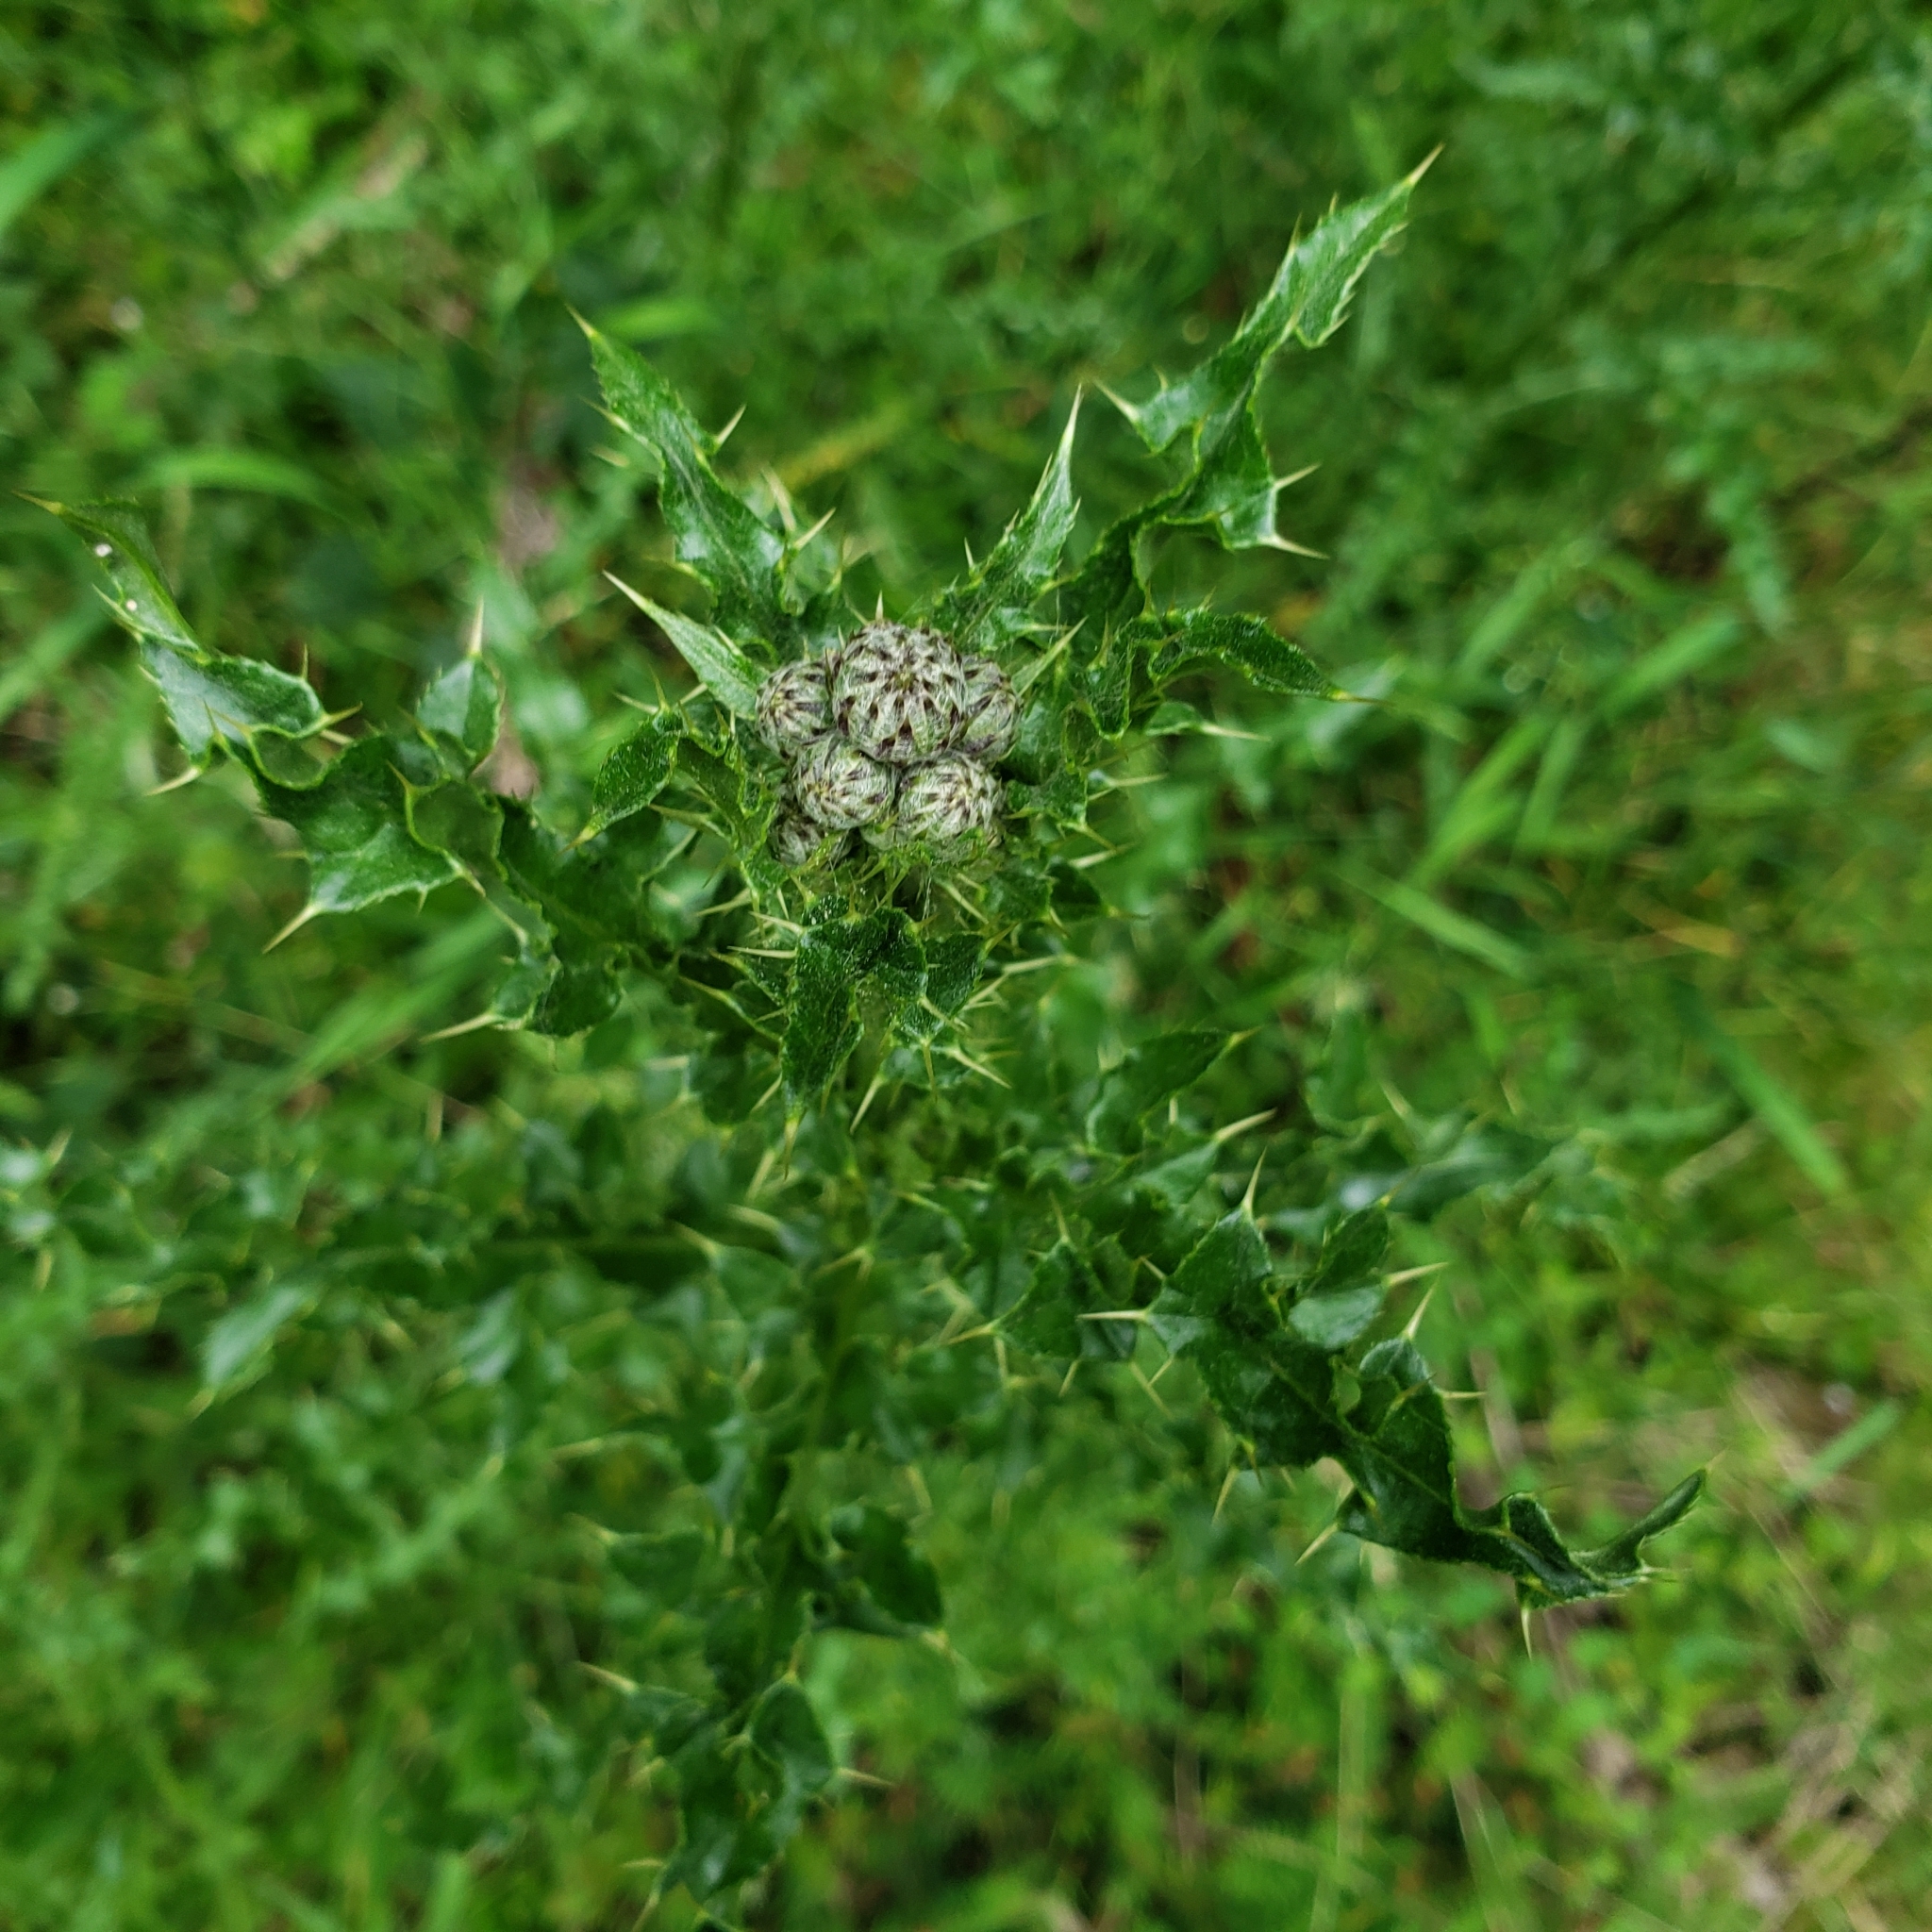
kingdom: Plantae
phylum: Tracheophyta
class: Magnoliopsida
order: Asterales
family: Asteraceae
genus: Cirsium
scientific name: Cirsium arvense
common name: Creeping thistle
